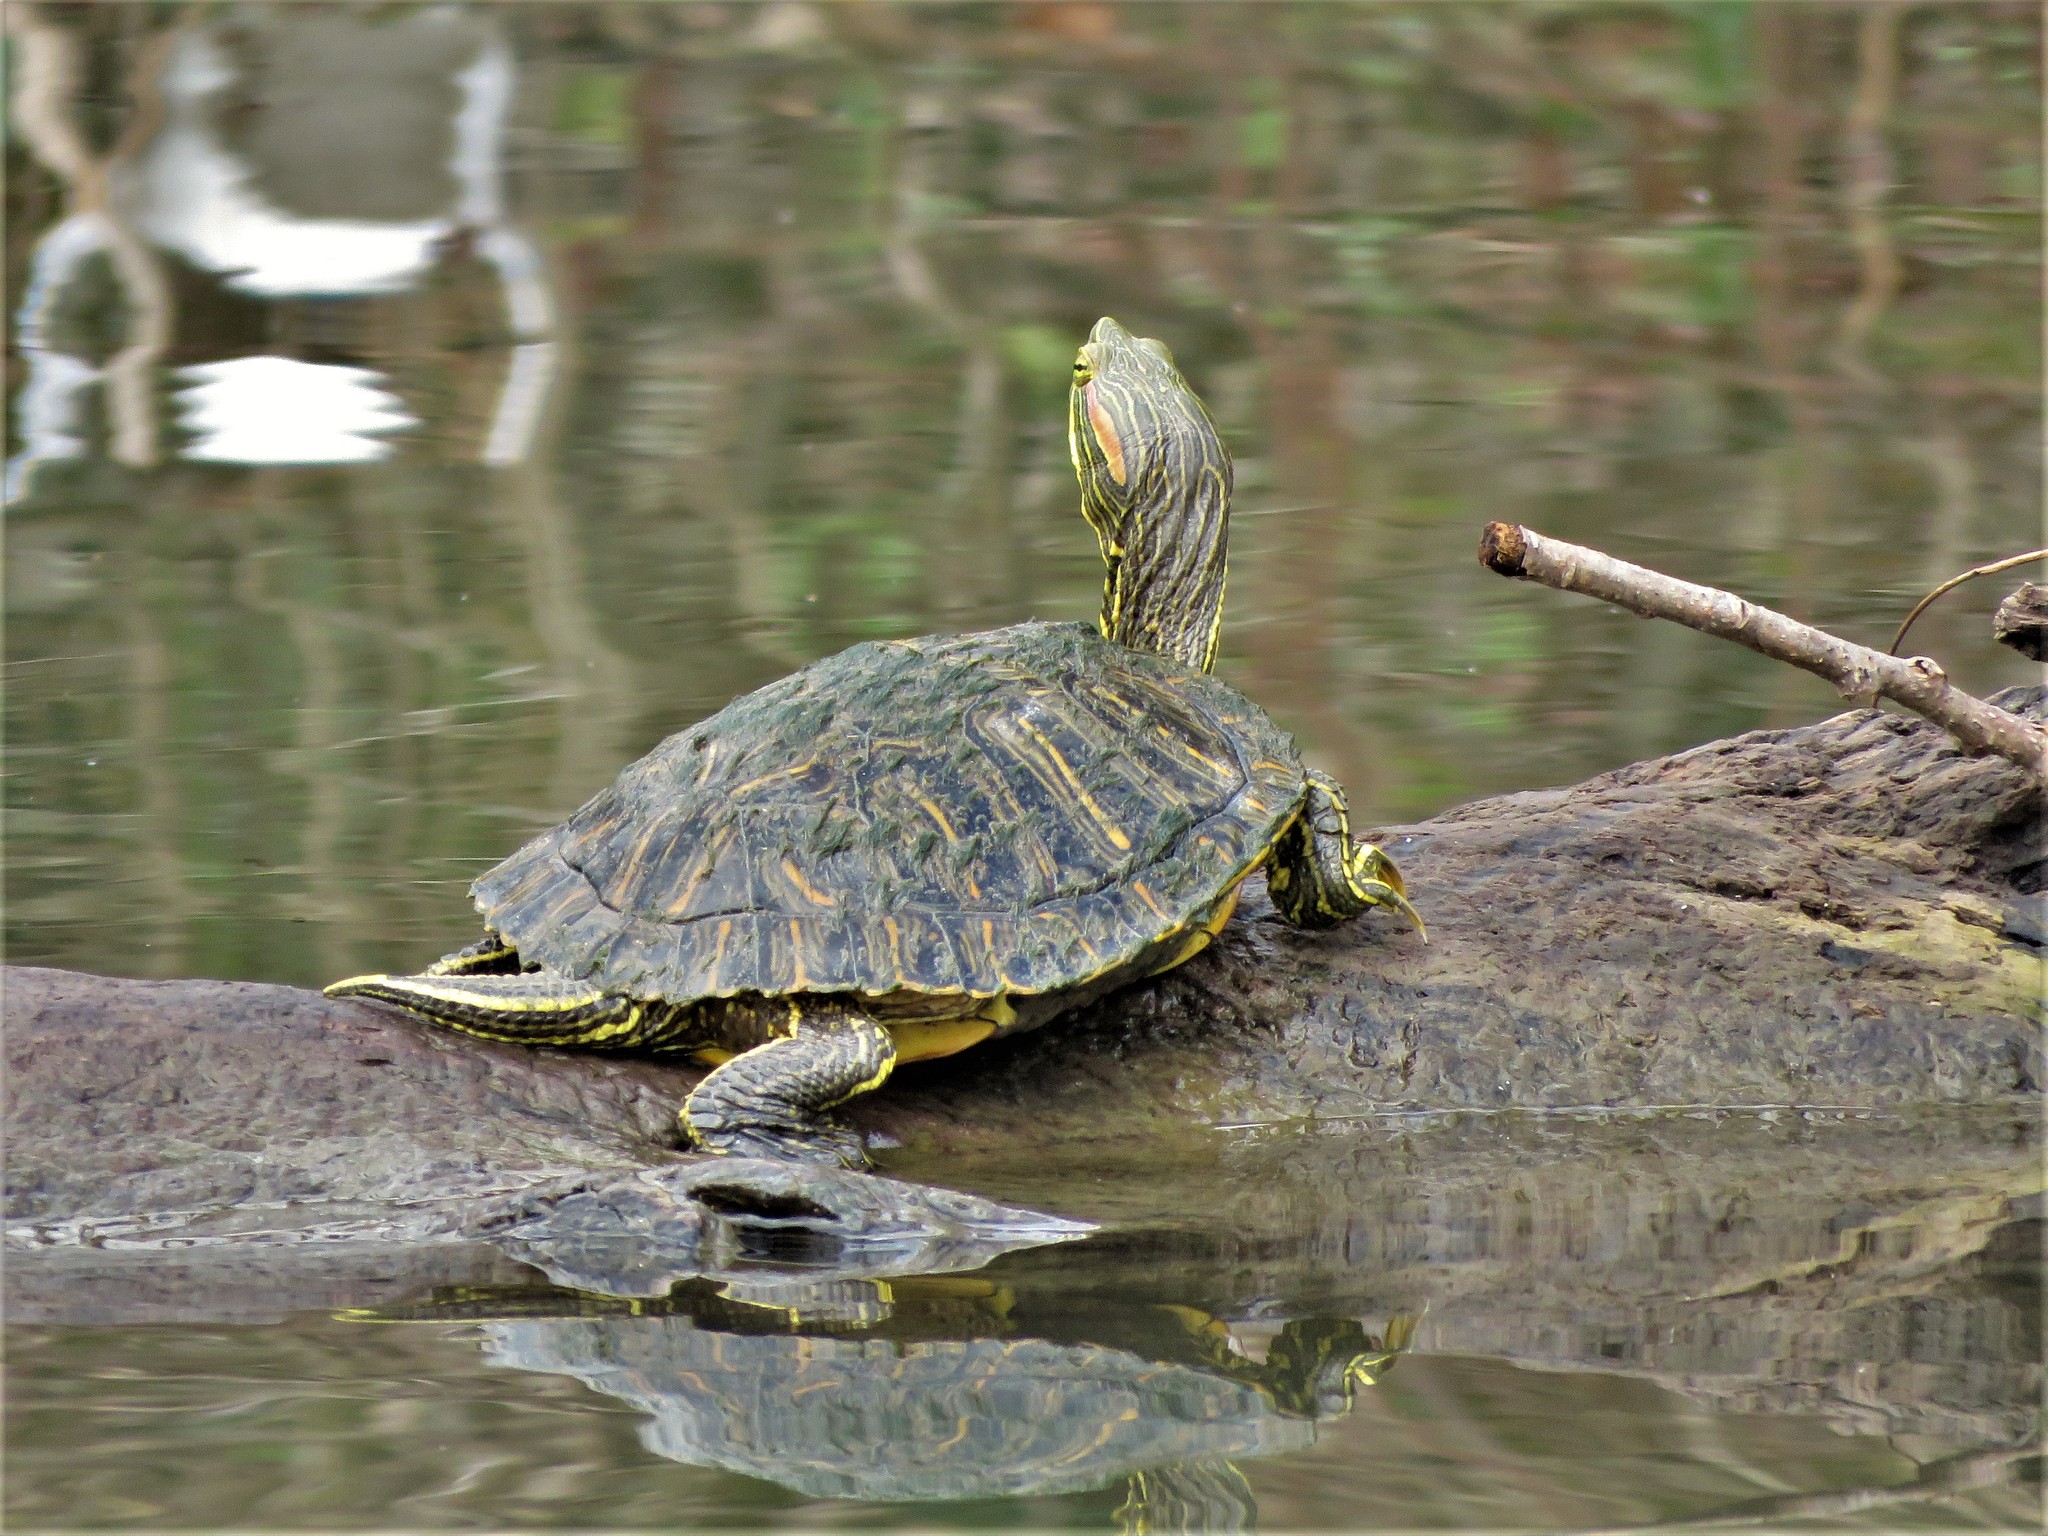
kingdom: Animalia
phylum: Chordata
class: Testudines
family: Emydidae
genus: Trachemys
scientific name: Trachemys scripta
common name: Slider
